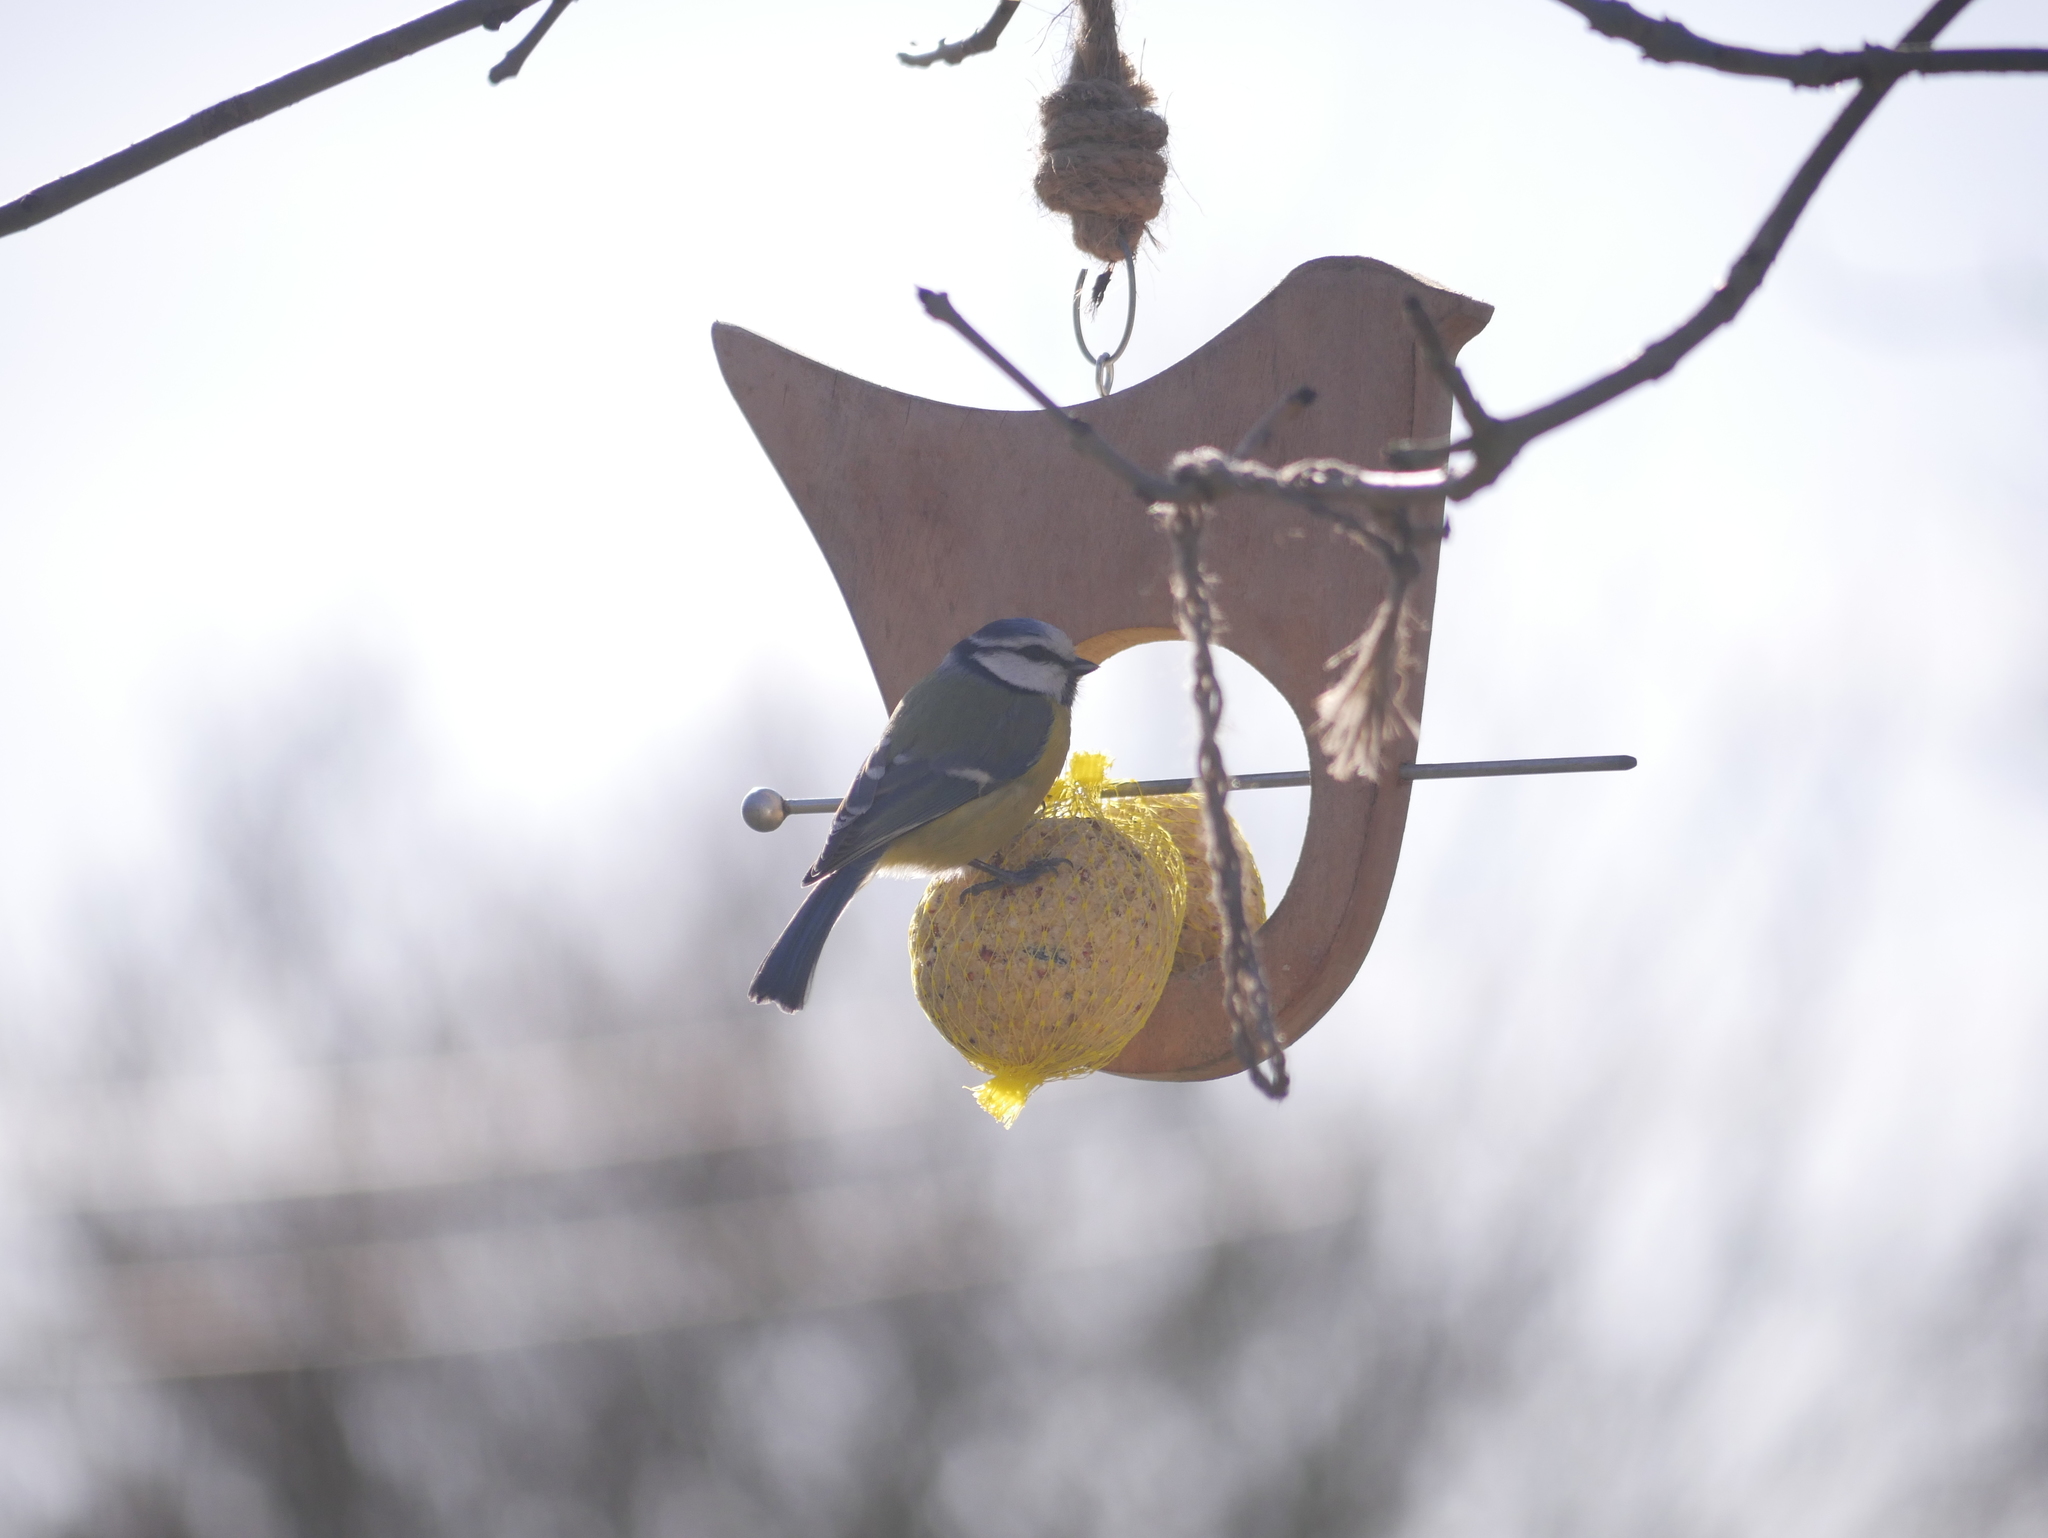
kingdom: Animalia
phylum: Chordata
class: Aves
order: Passeriformes
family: Paridae
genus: Cyanistes
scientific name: Cyanistes caeruleus
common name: Eurasian blue tit
